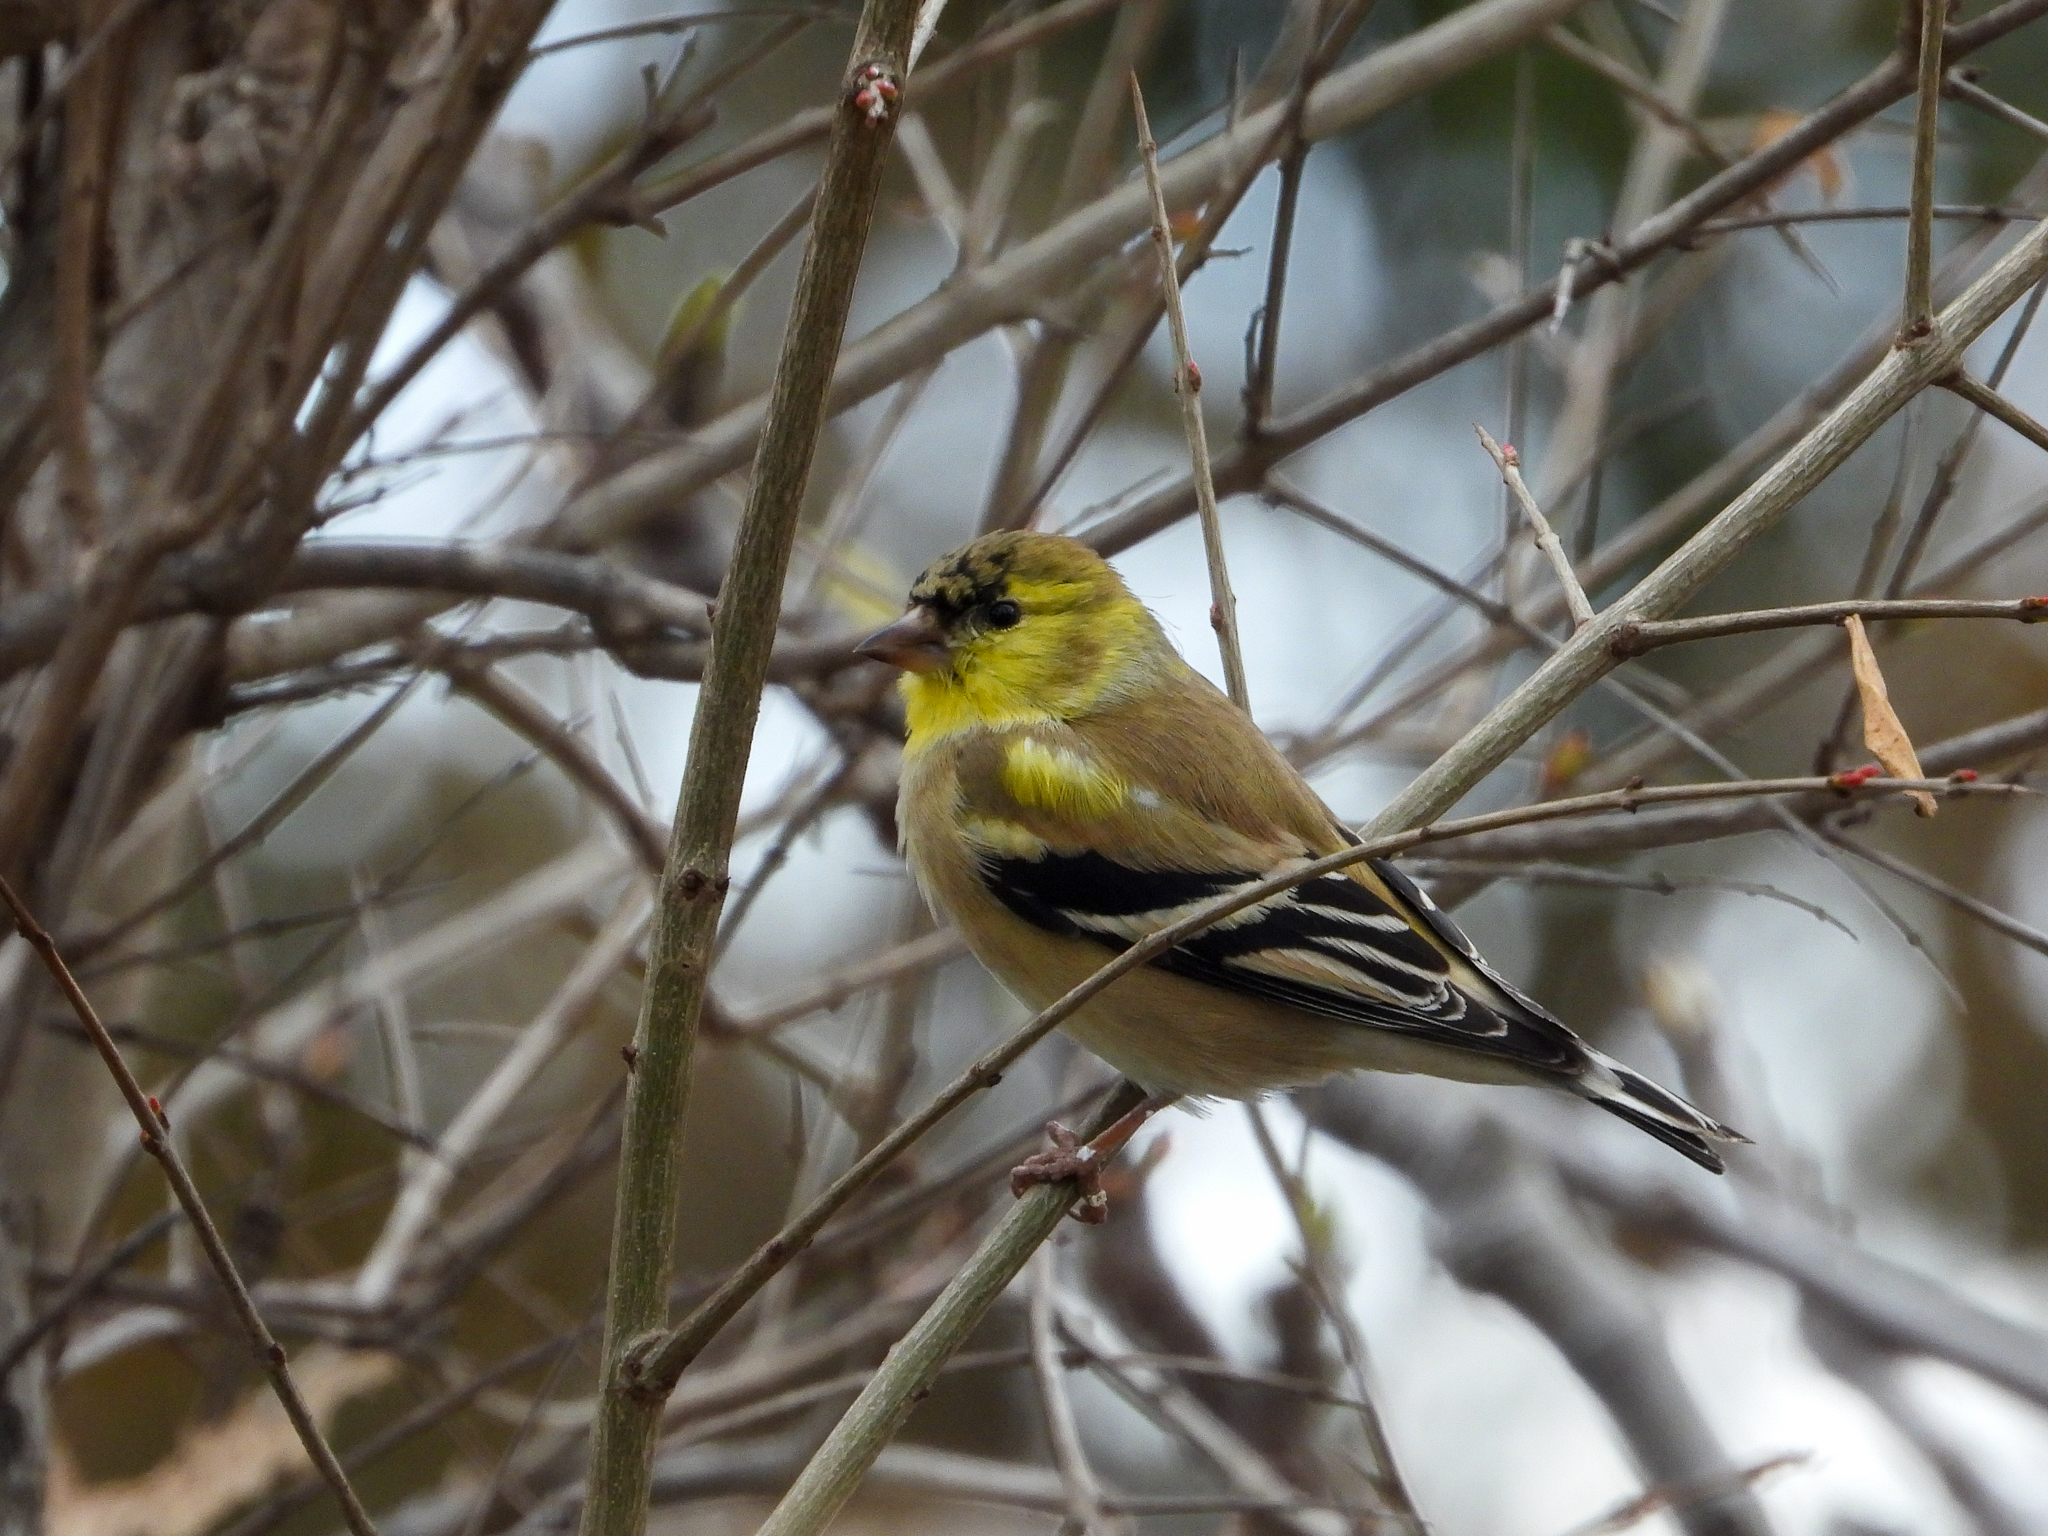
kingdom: Animalia
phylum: Chordata
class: Aves
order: Passeriformes
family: Fringillidae
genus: Spinus
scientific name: Spinus tristis
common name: American goldfinch
